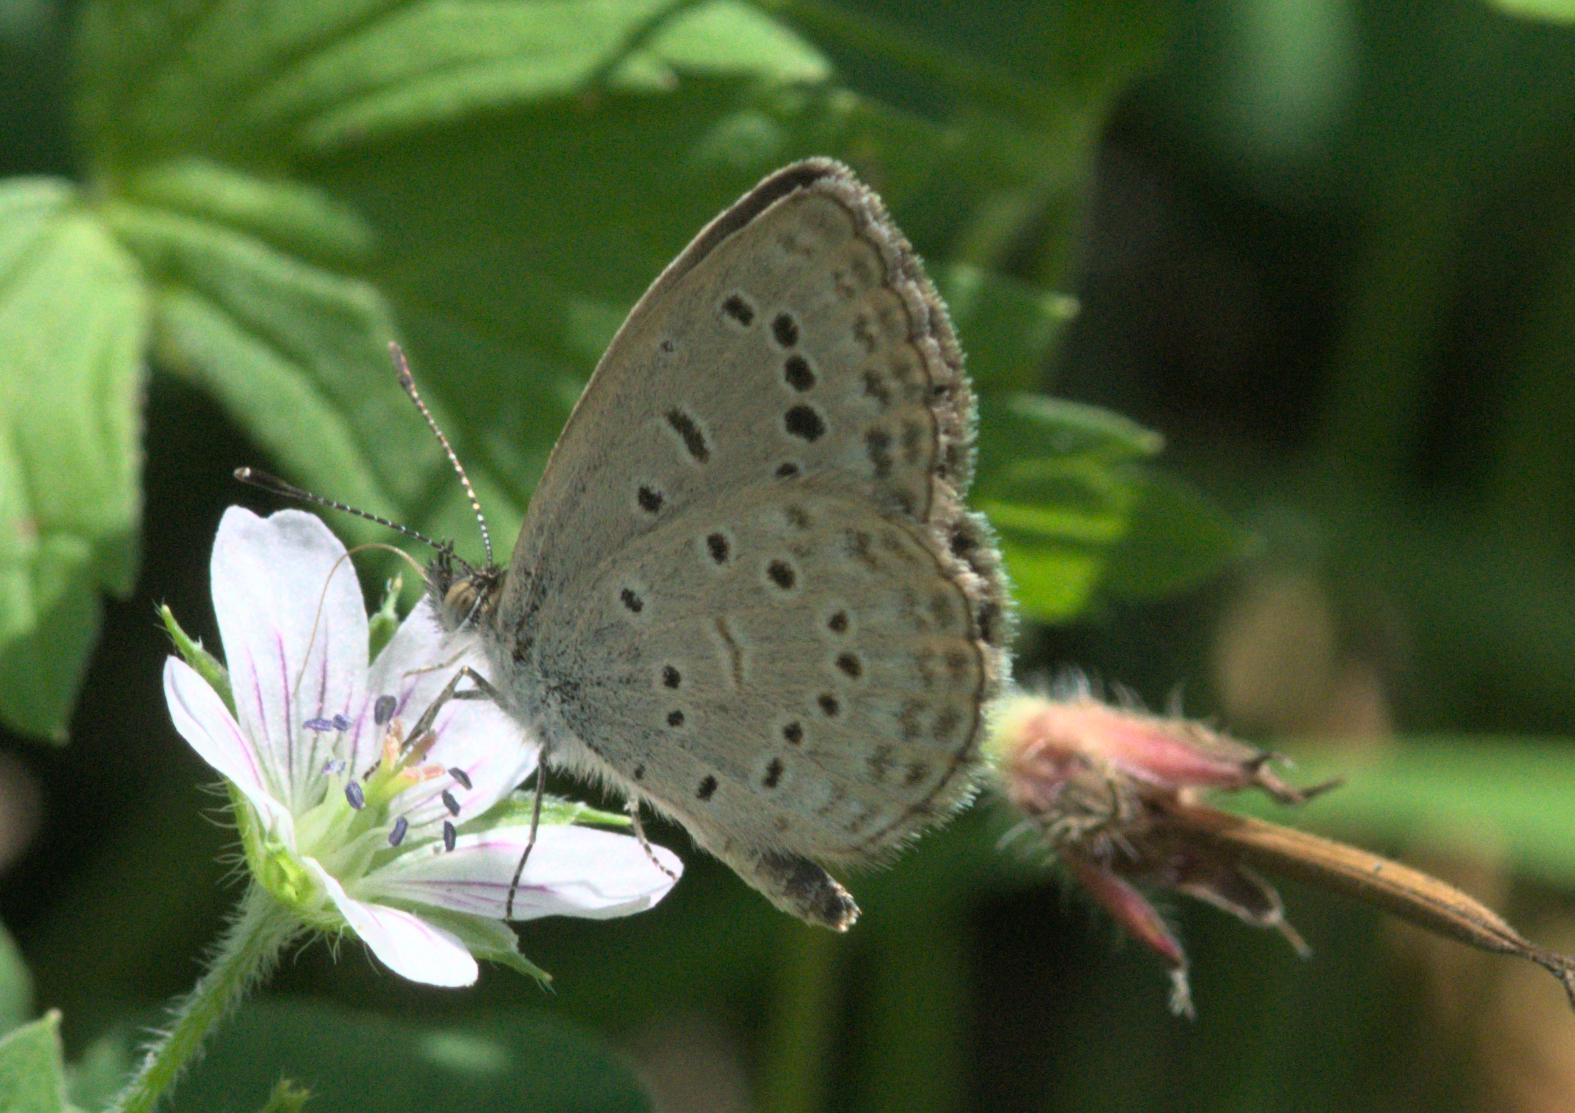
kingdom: Animalia
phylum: Arthropoda
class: Insecta
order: Lepidoptera
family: Lycaenidae
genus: Pseudozizeeria
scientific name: Pseudozizeeria maha
